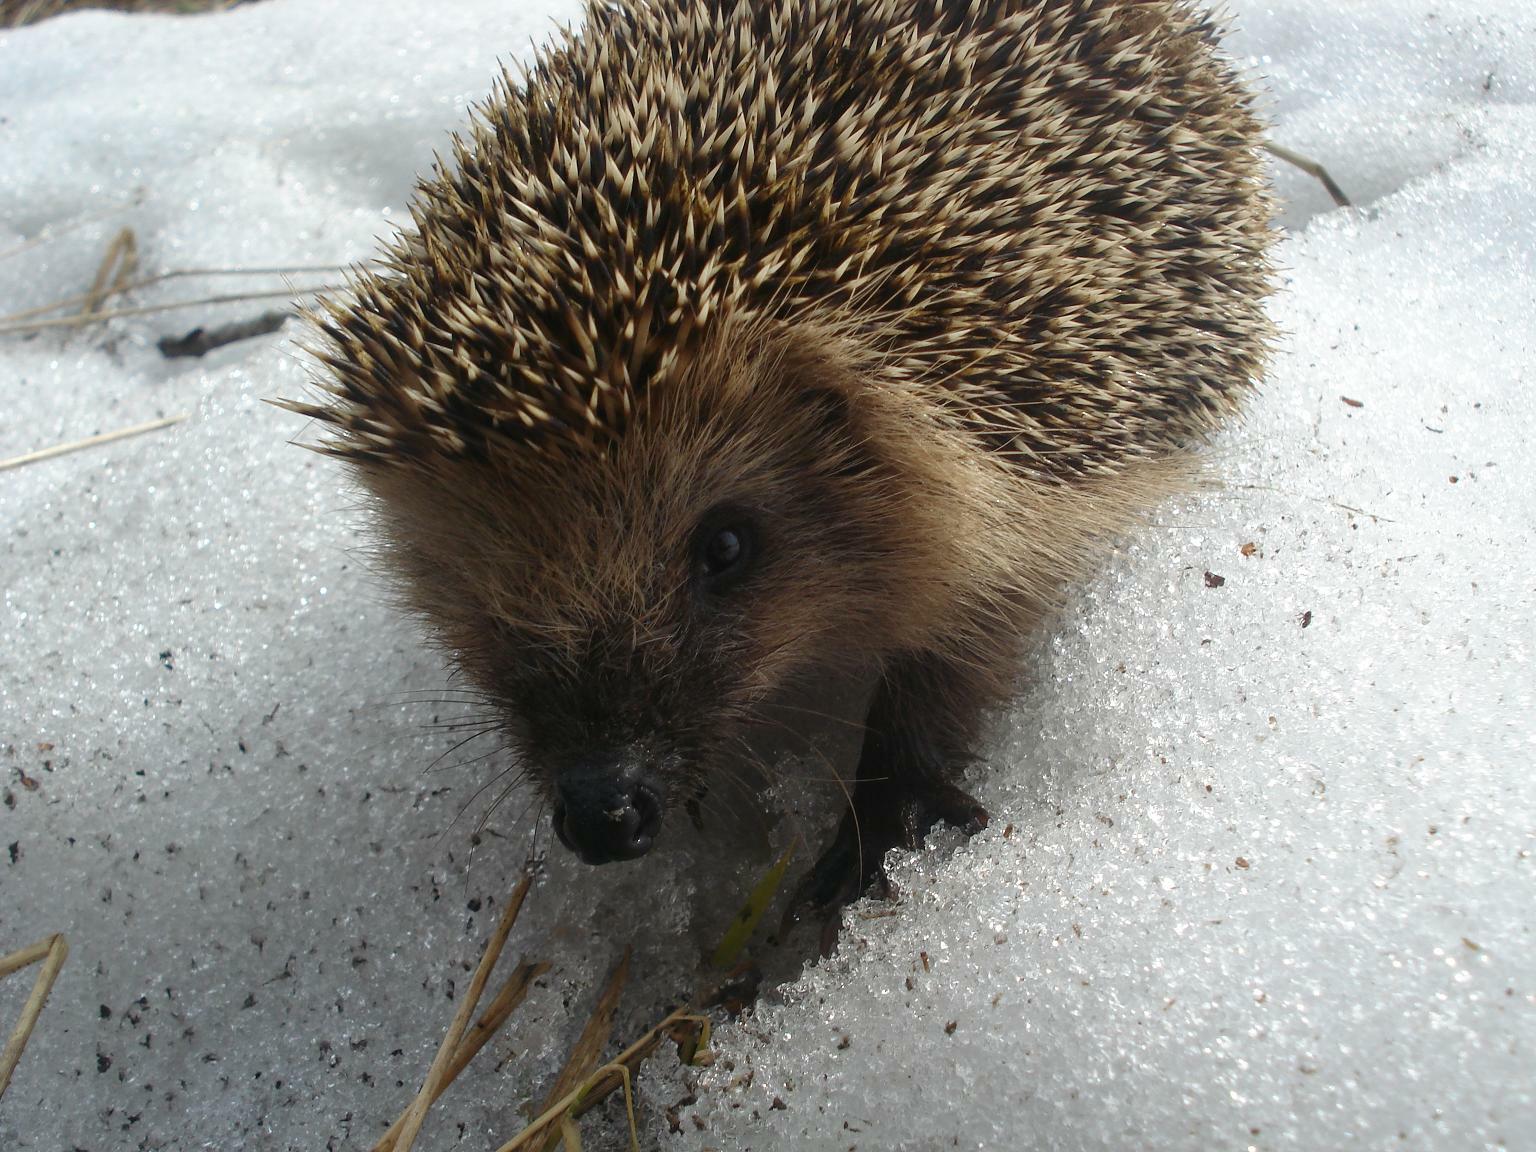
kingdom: Animalia
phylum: Chordata
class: Mammalia
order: Erinaceomorpha
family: Erinaceidae
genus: Erinaceus
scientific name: Erinaceus europaeus
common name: West european hedgehog
